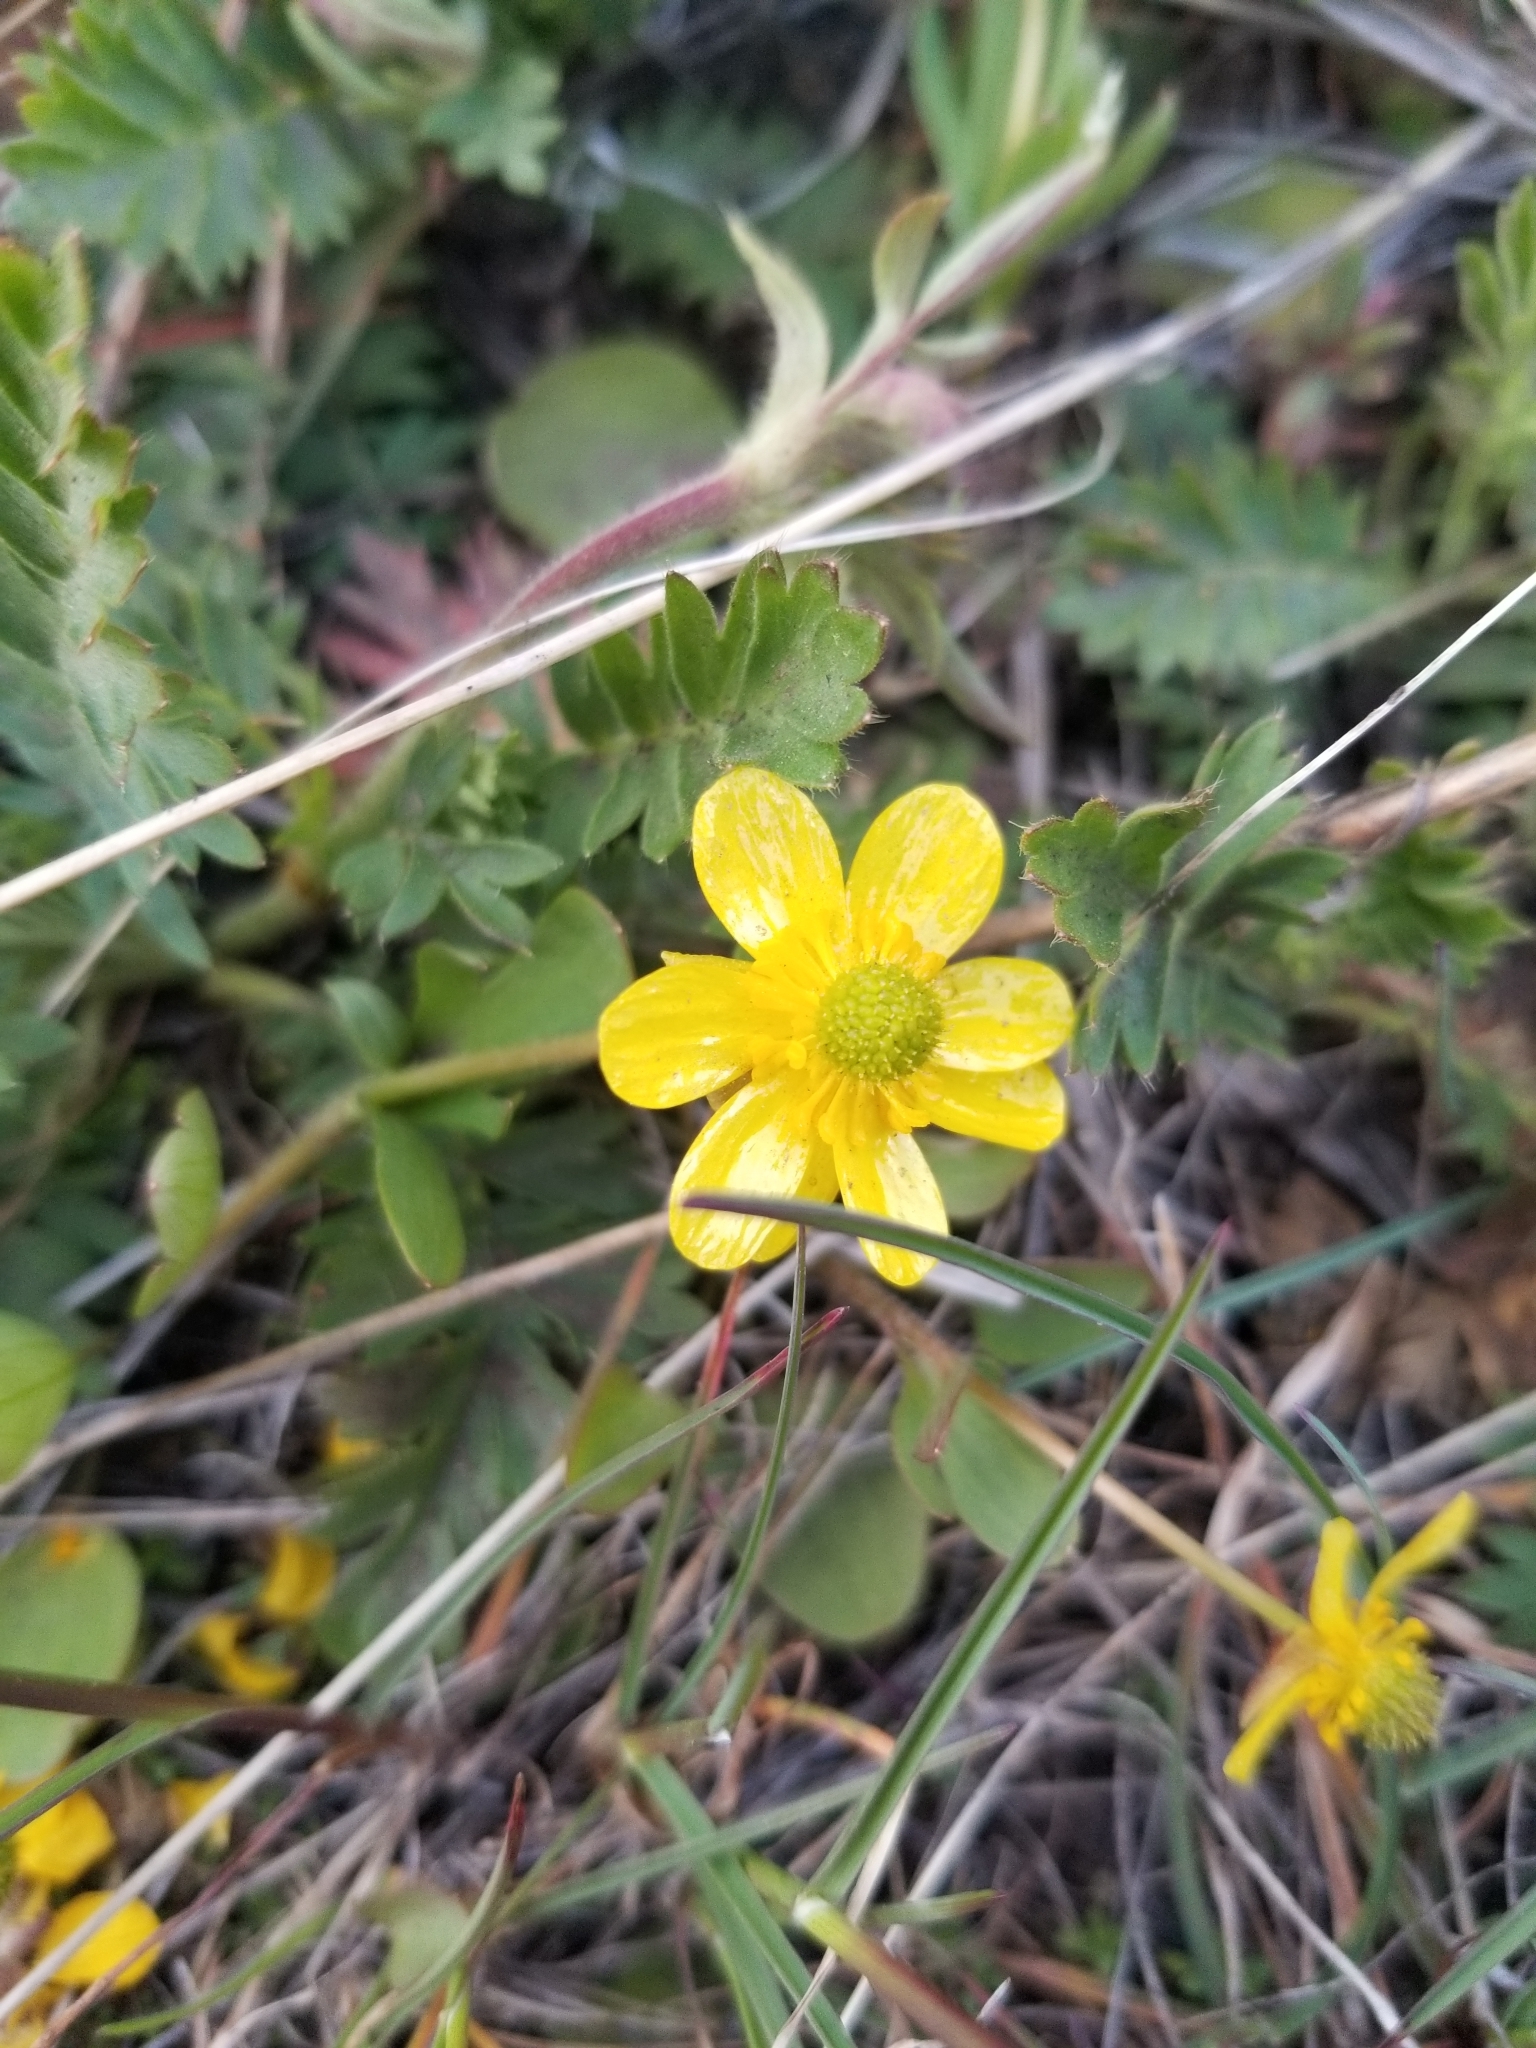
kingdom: Plantae
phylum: Tracheophyta
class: Magnoliopsida
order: Ranunculales
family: Ranunculaceae
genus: Ranunculus
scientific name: Ranunculus glaberrimus
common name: Sagebrush buttercup
